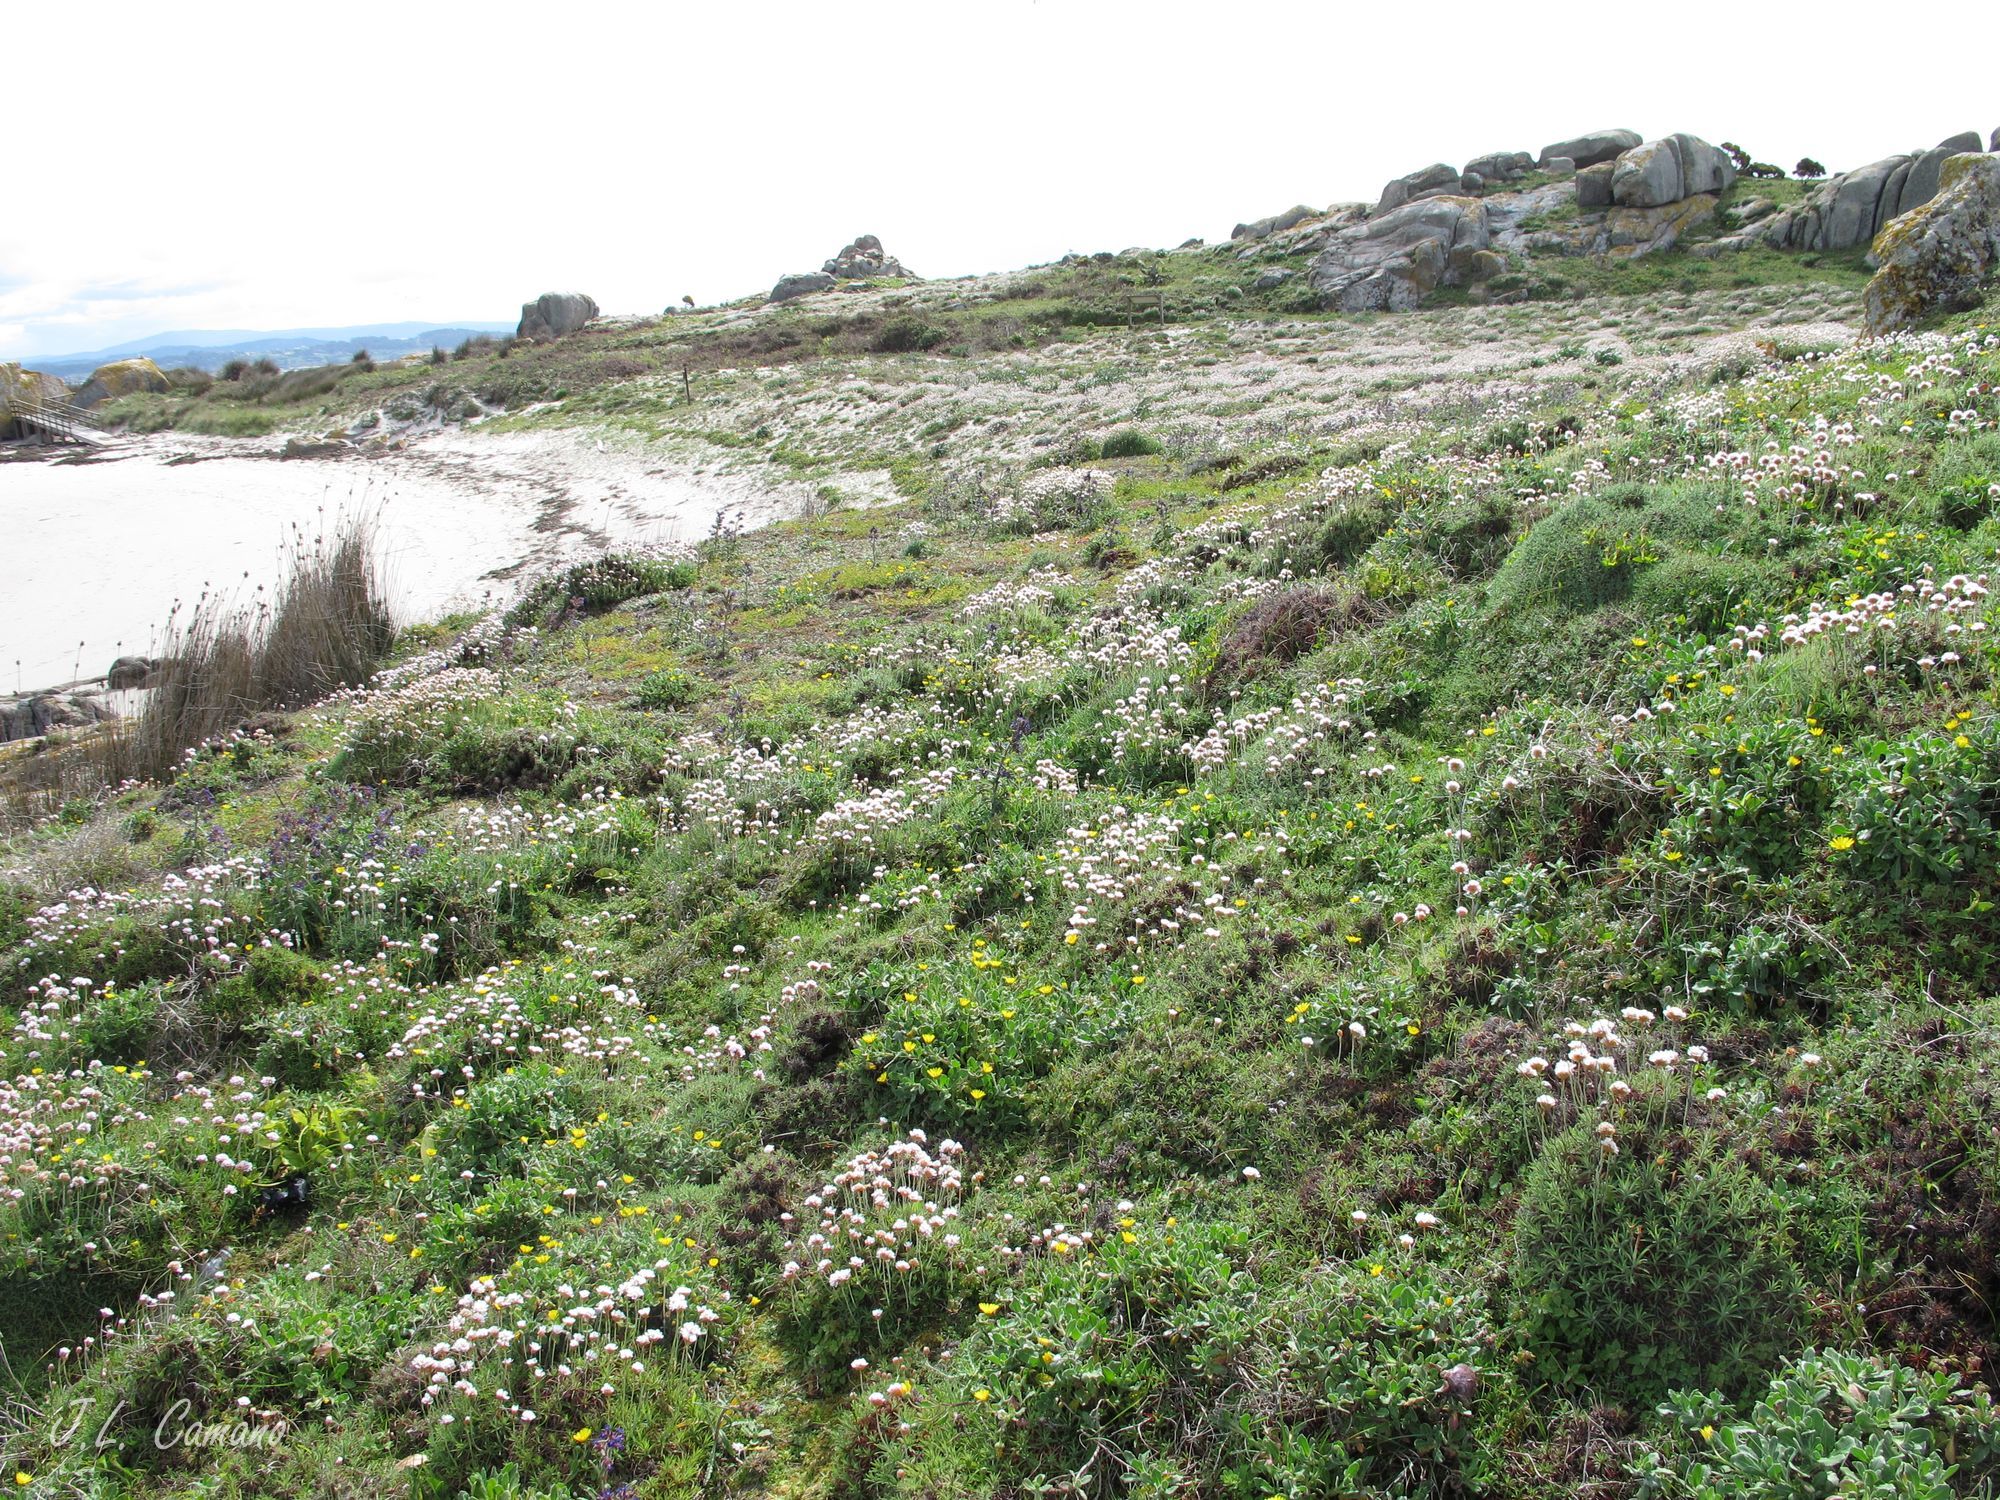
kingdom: Plantae
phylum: Bryophyta
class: Bryopsida
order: Hypnales
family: Hypnaceae
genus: Hypnum
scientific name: Hypnum cupressiforme
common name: Cypress-leaved plait-moss
